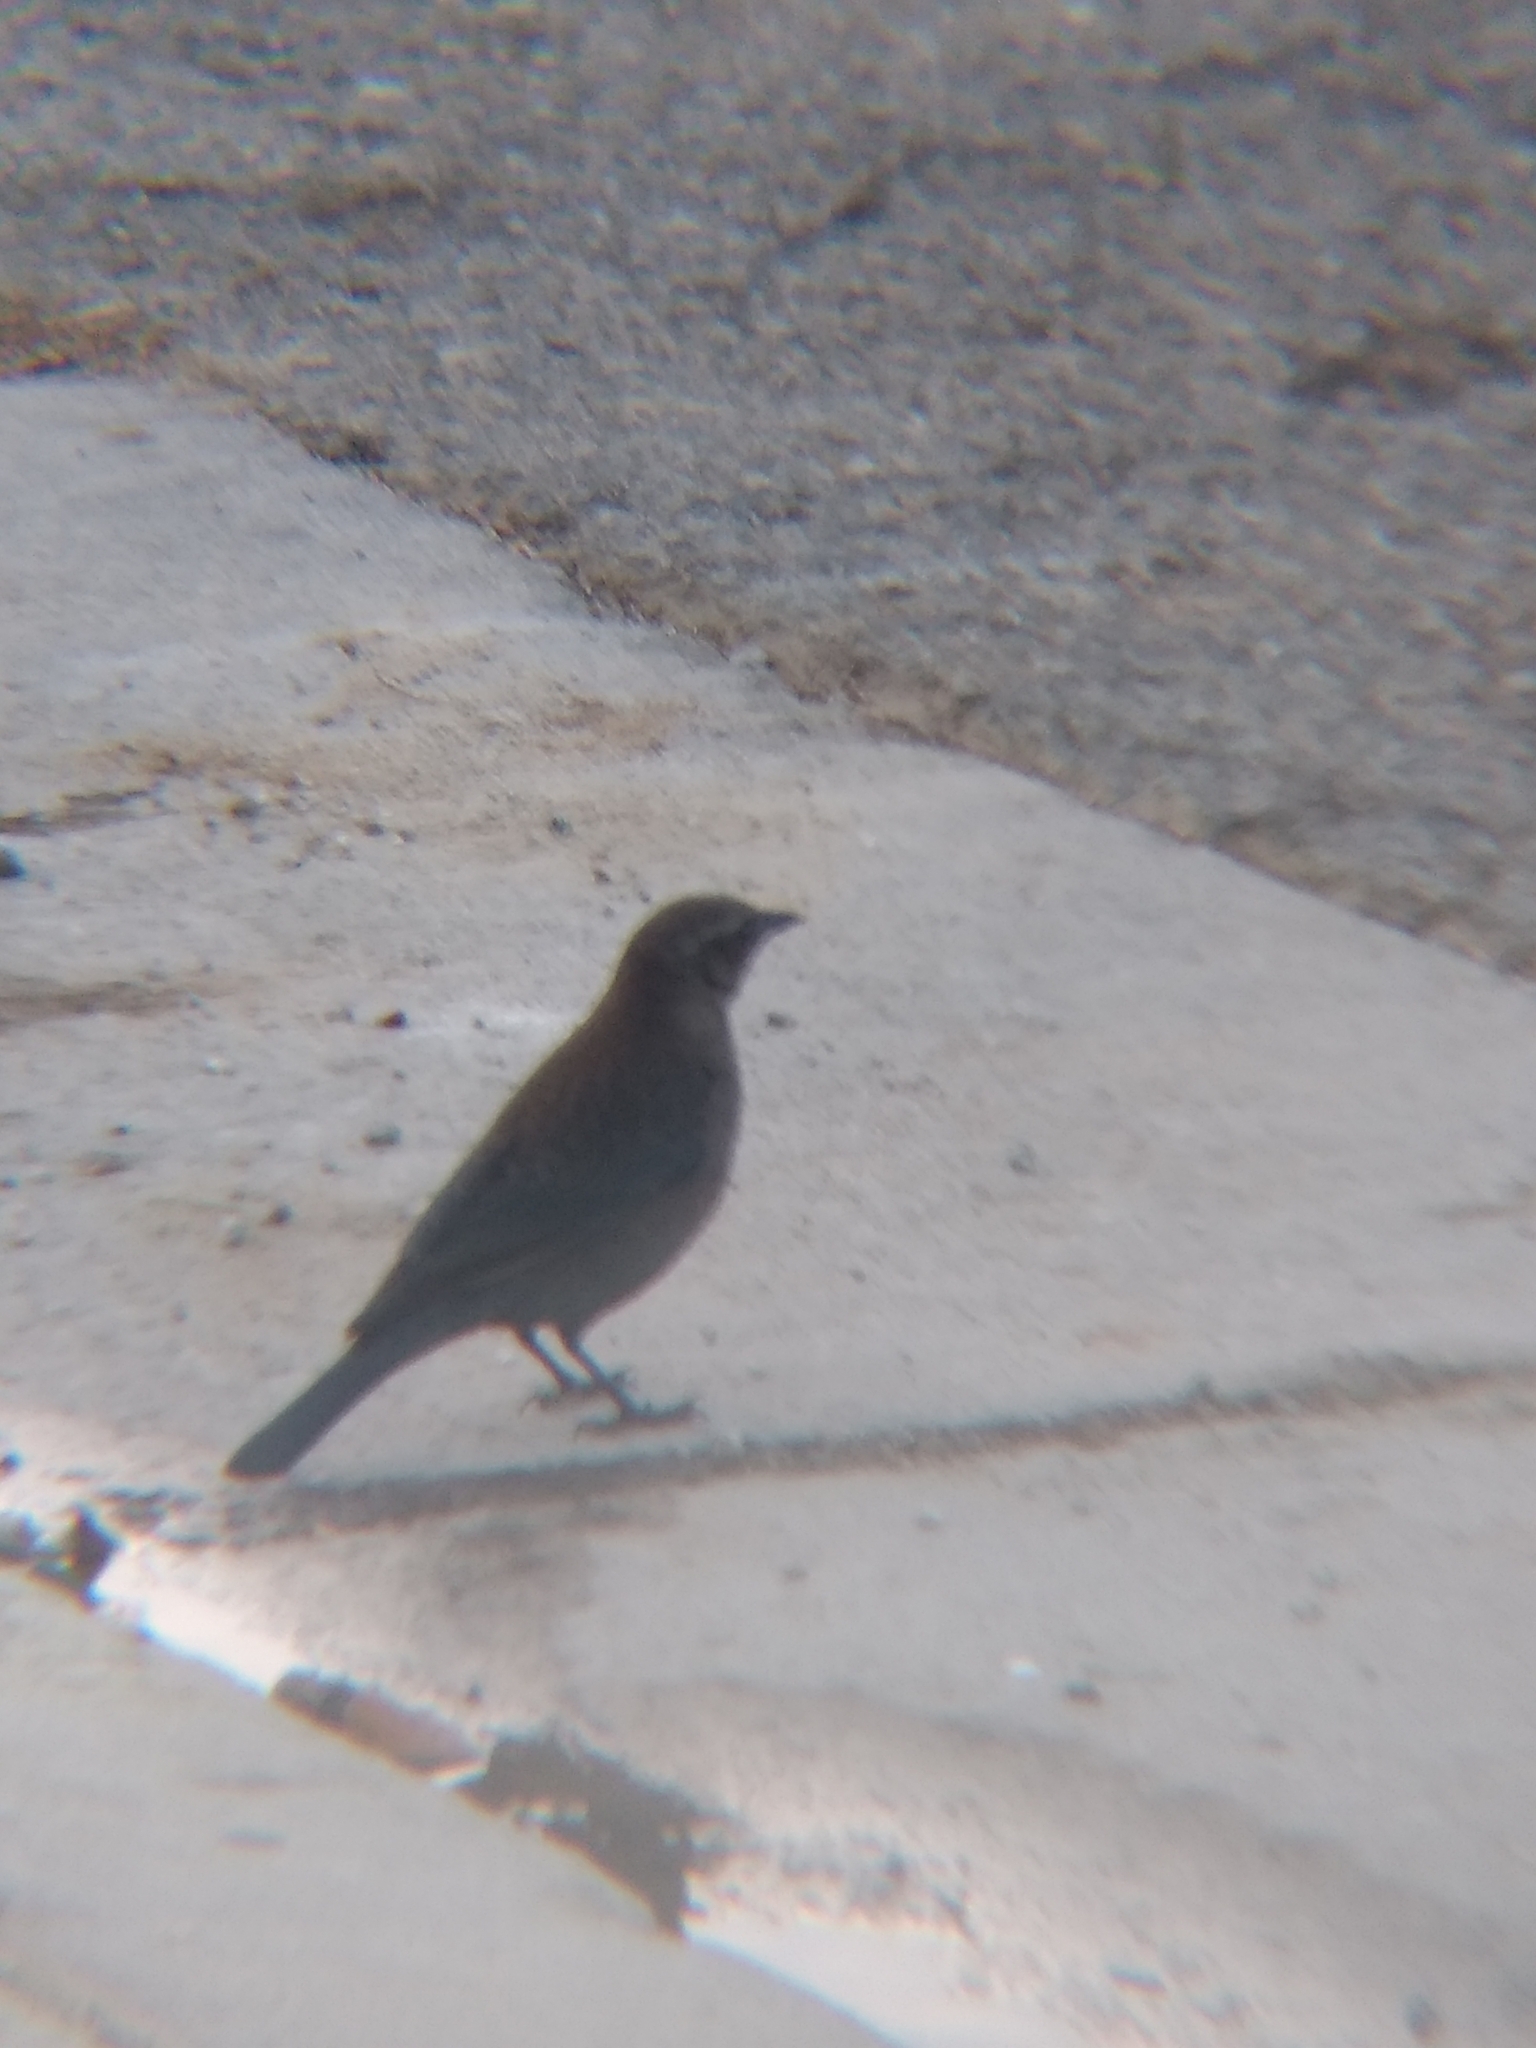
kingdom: Animalia
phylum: Chordata
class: Aves
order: Passeriformes
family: Icteridae
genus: Euphagus
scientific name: Euphagus cyanocephalus
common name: Brewer's blackbird
